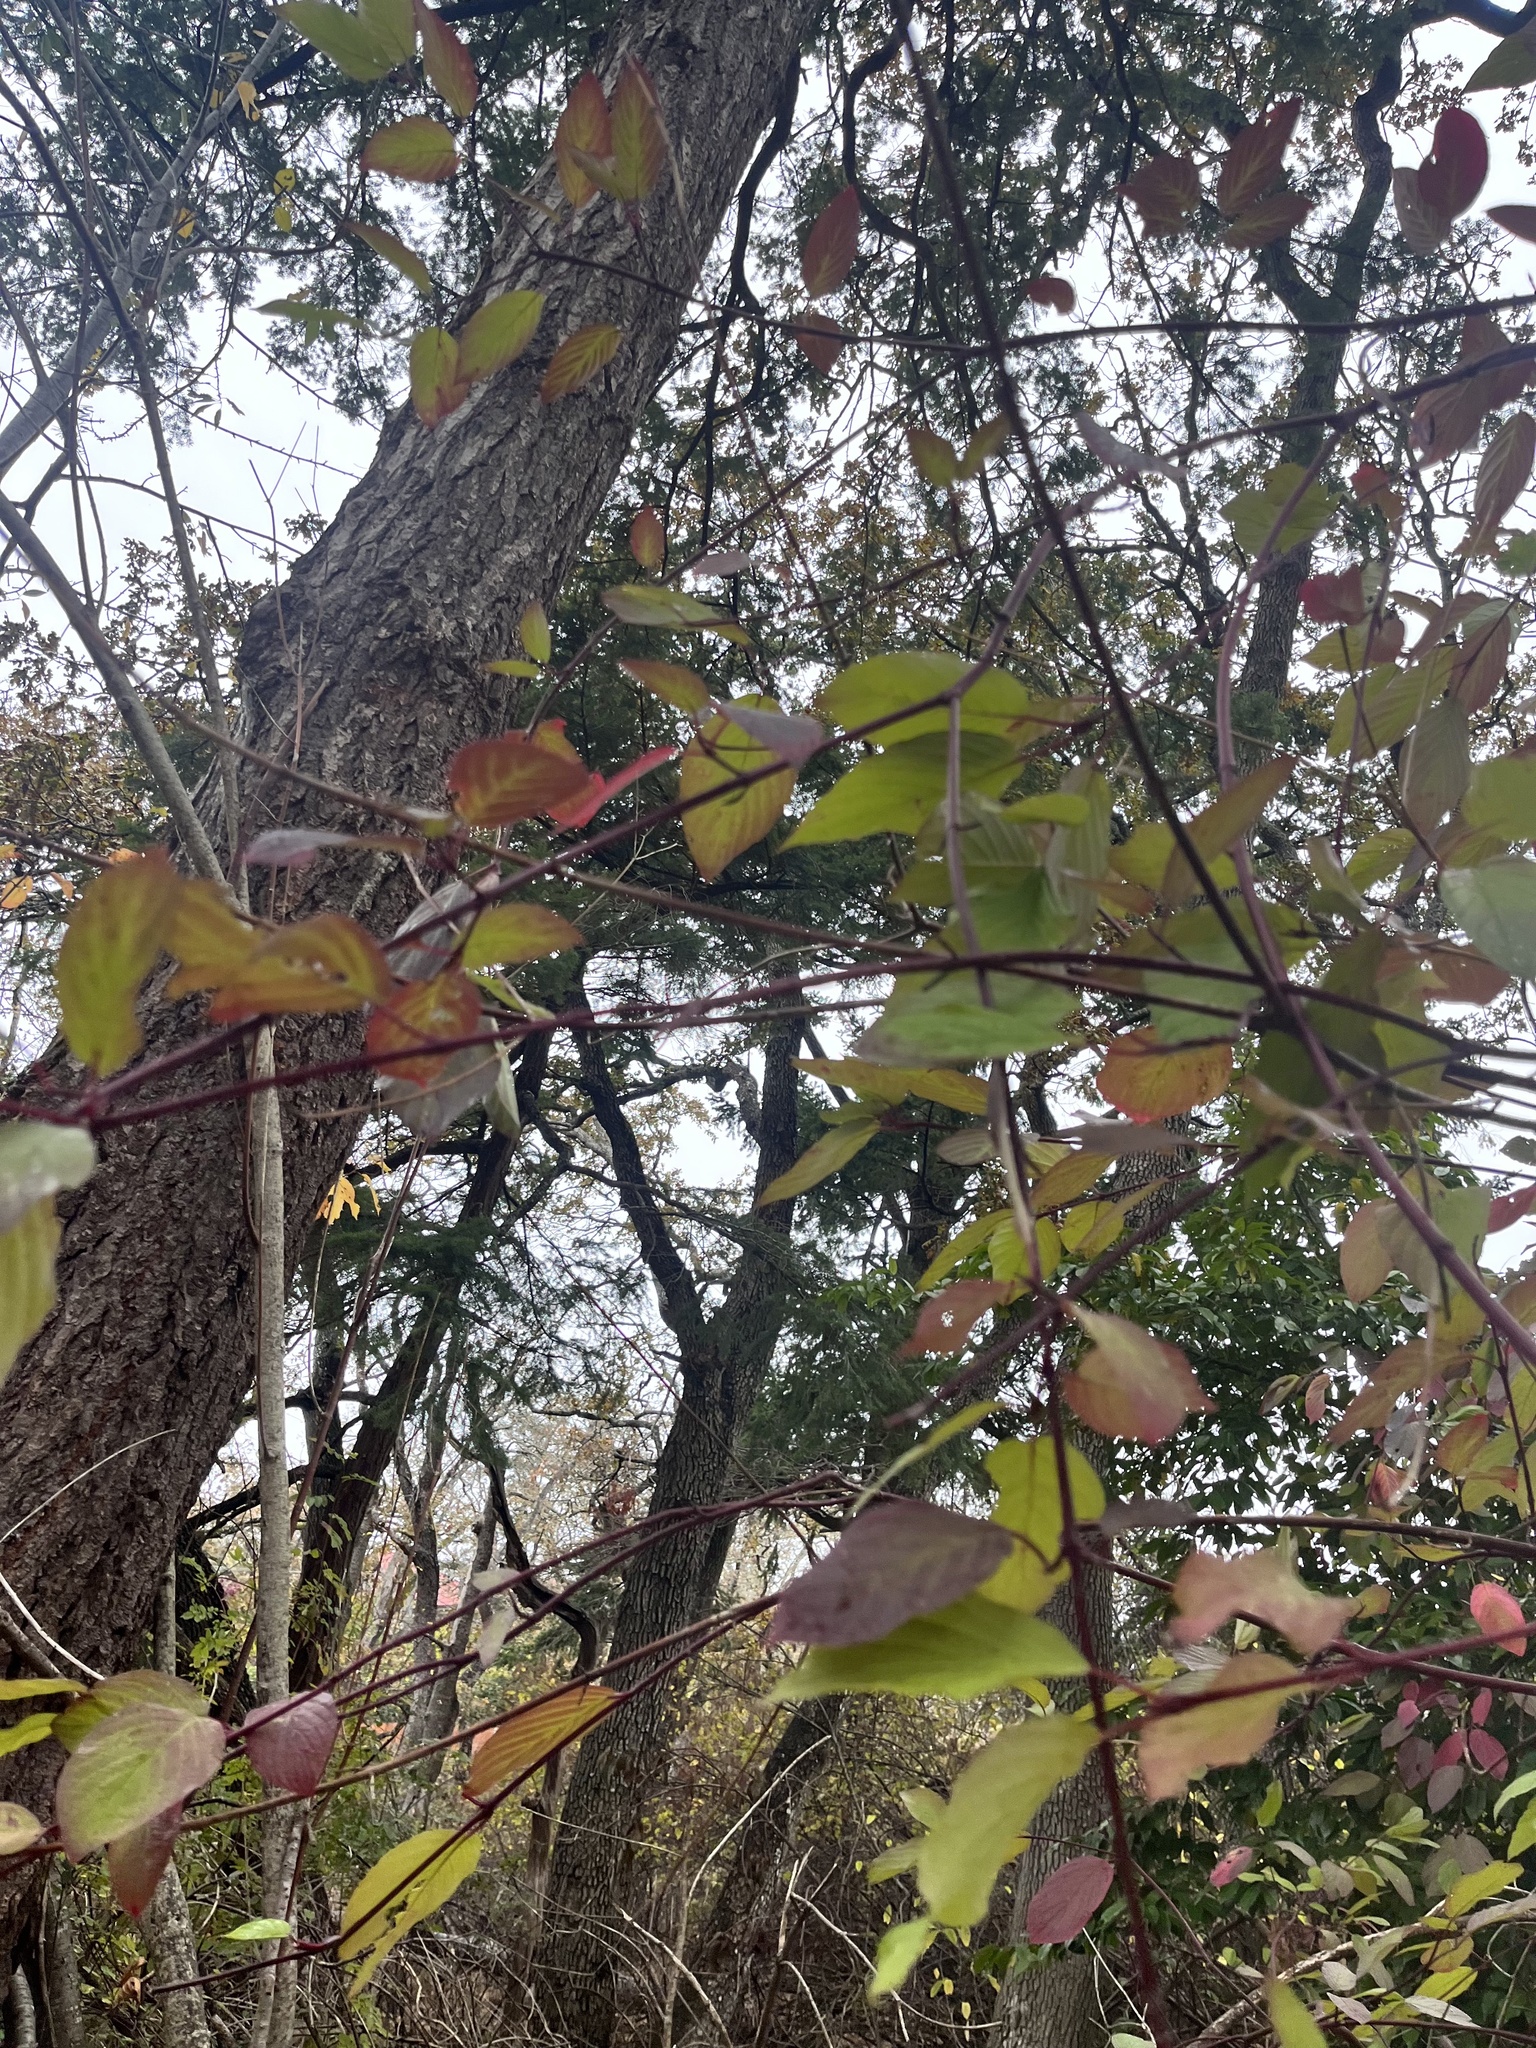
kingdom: Plantae
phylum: Tracheophyta
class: Magnoliopsida
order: Cornales
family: Cornaceae
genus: Cornus
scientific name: Cornus sericea
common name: Red-osier dogwood
